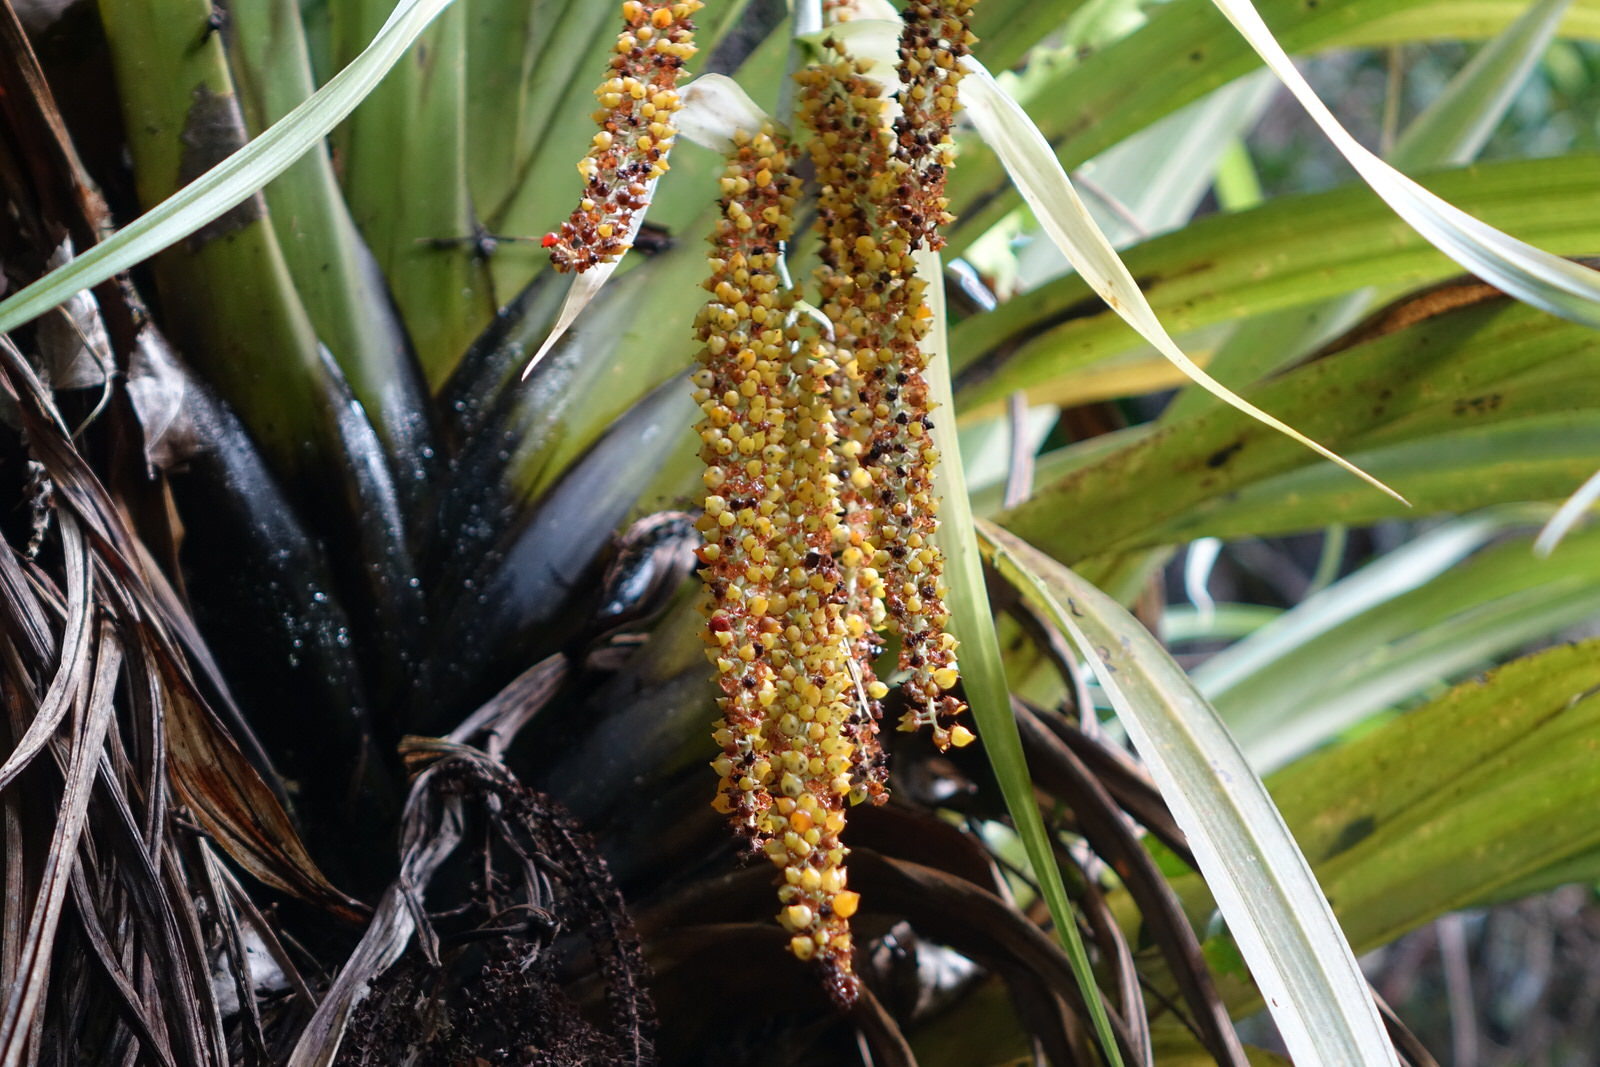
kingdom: Plantae
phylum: Tracheophyta
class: Liliopsida
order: Asparagales
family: Asteliaceae
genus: Astelia
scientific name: Astelia hastata
